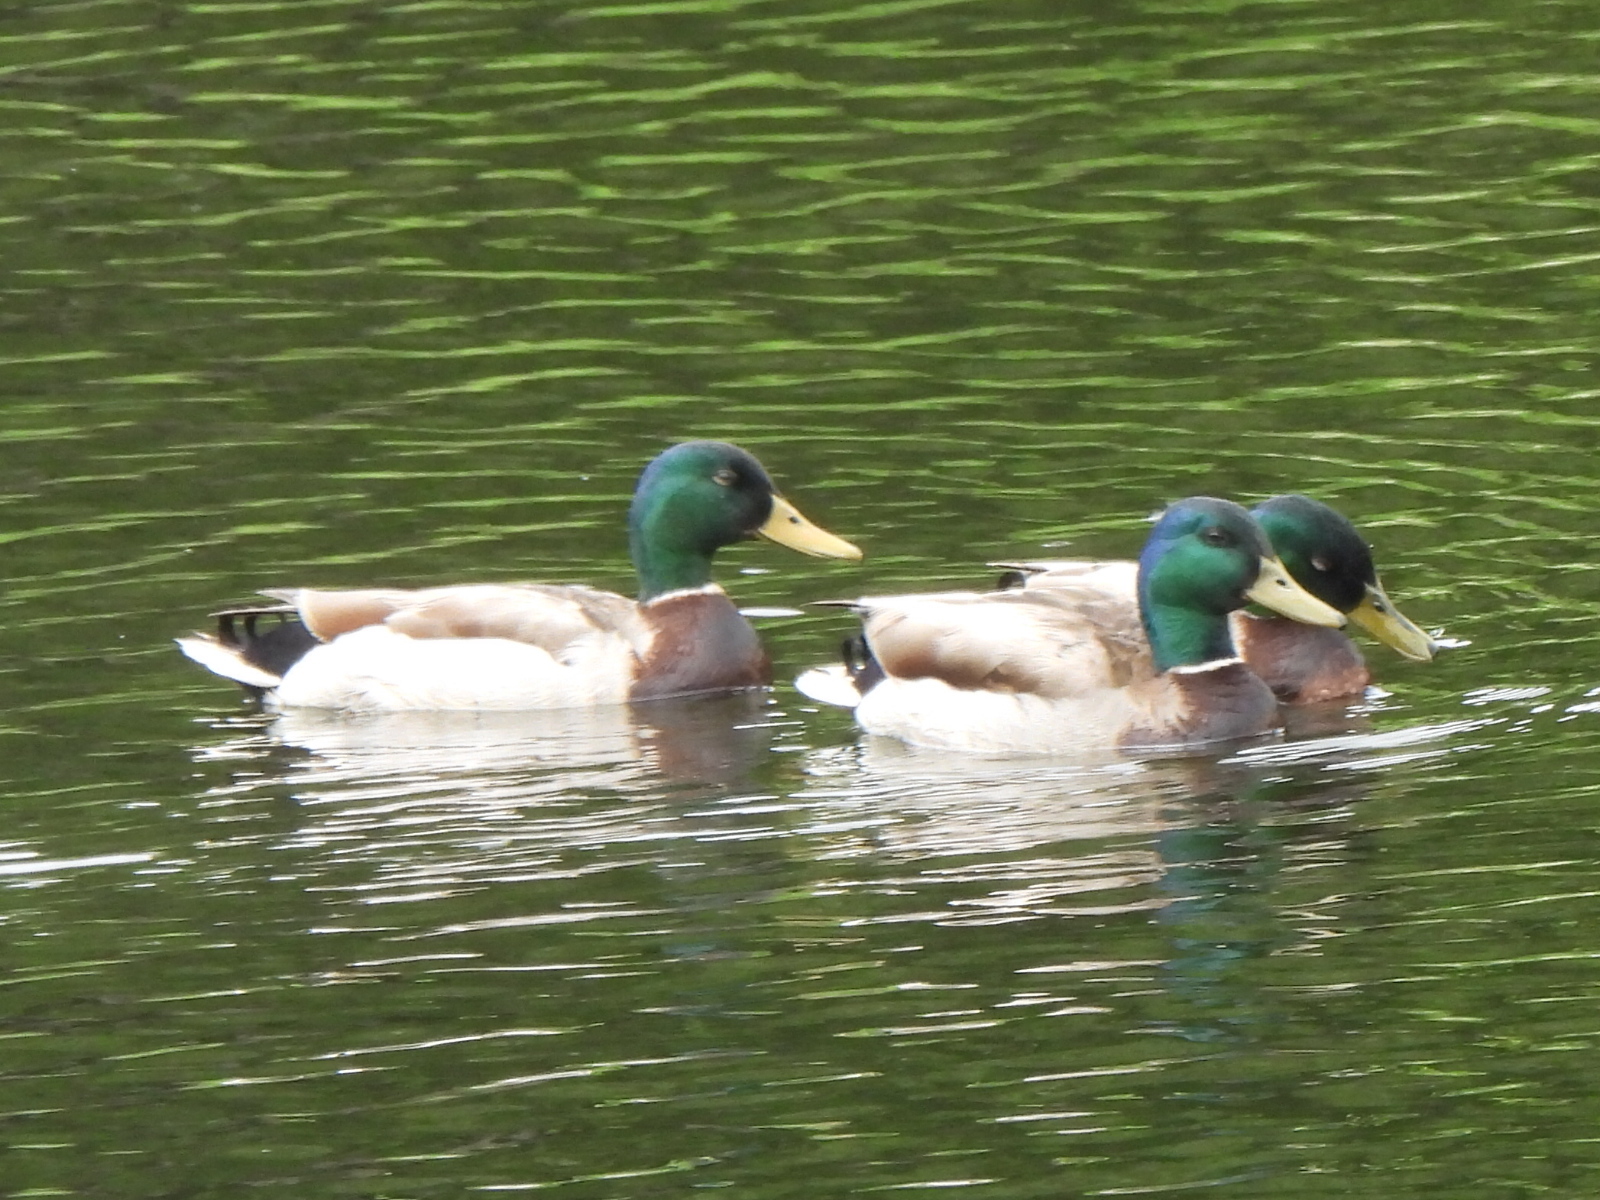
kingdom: Animalia
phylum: Chordata
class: Aves
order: Anseriformes
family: Anatidae
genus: Anas
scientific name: Anas platyrhynchos
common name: Mallard
